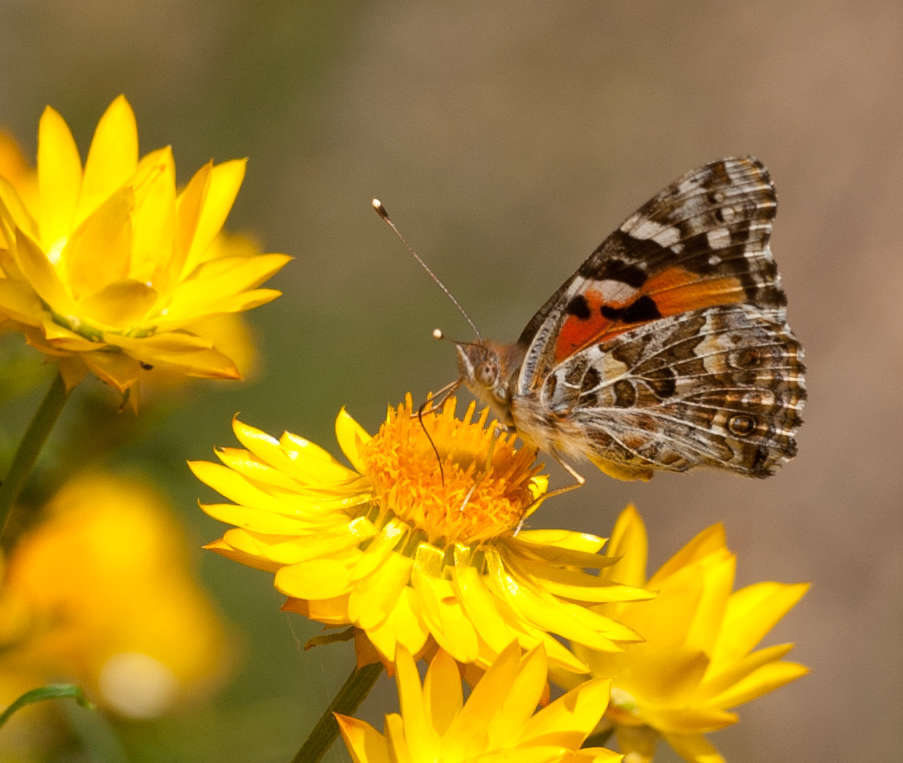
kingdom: Animalia
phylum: Arthropoda
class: Insecta
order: Lepidoptera
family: Nymphalidae
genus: Vanessa
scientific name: Vanessa kershawi
